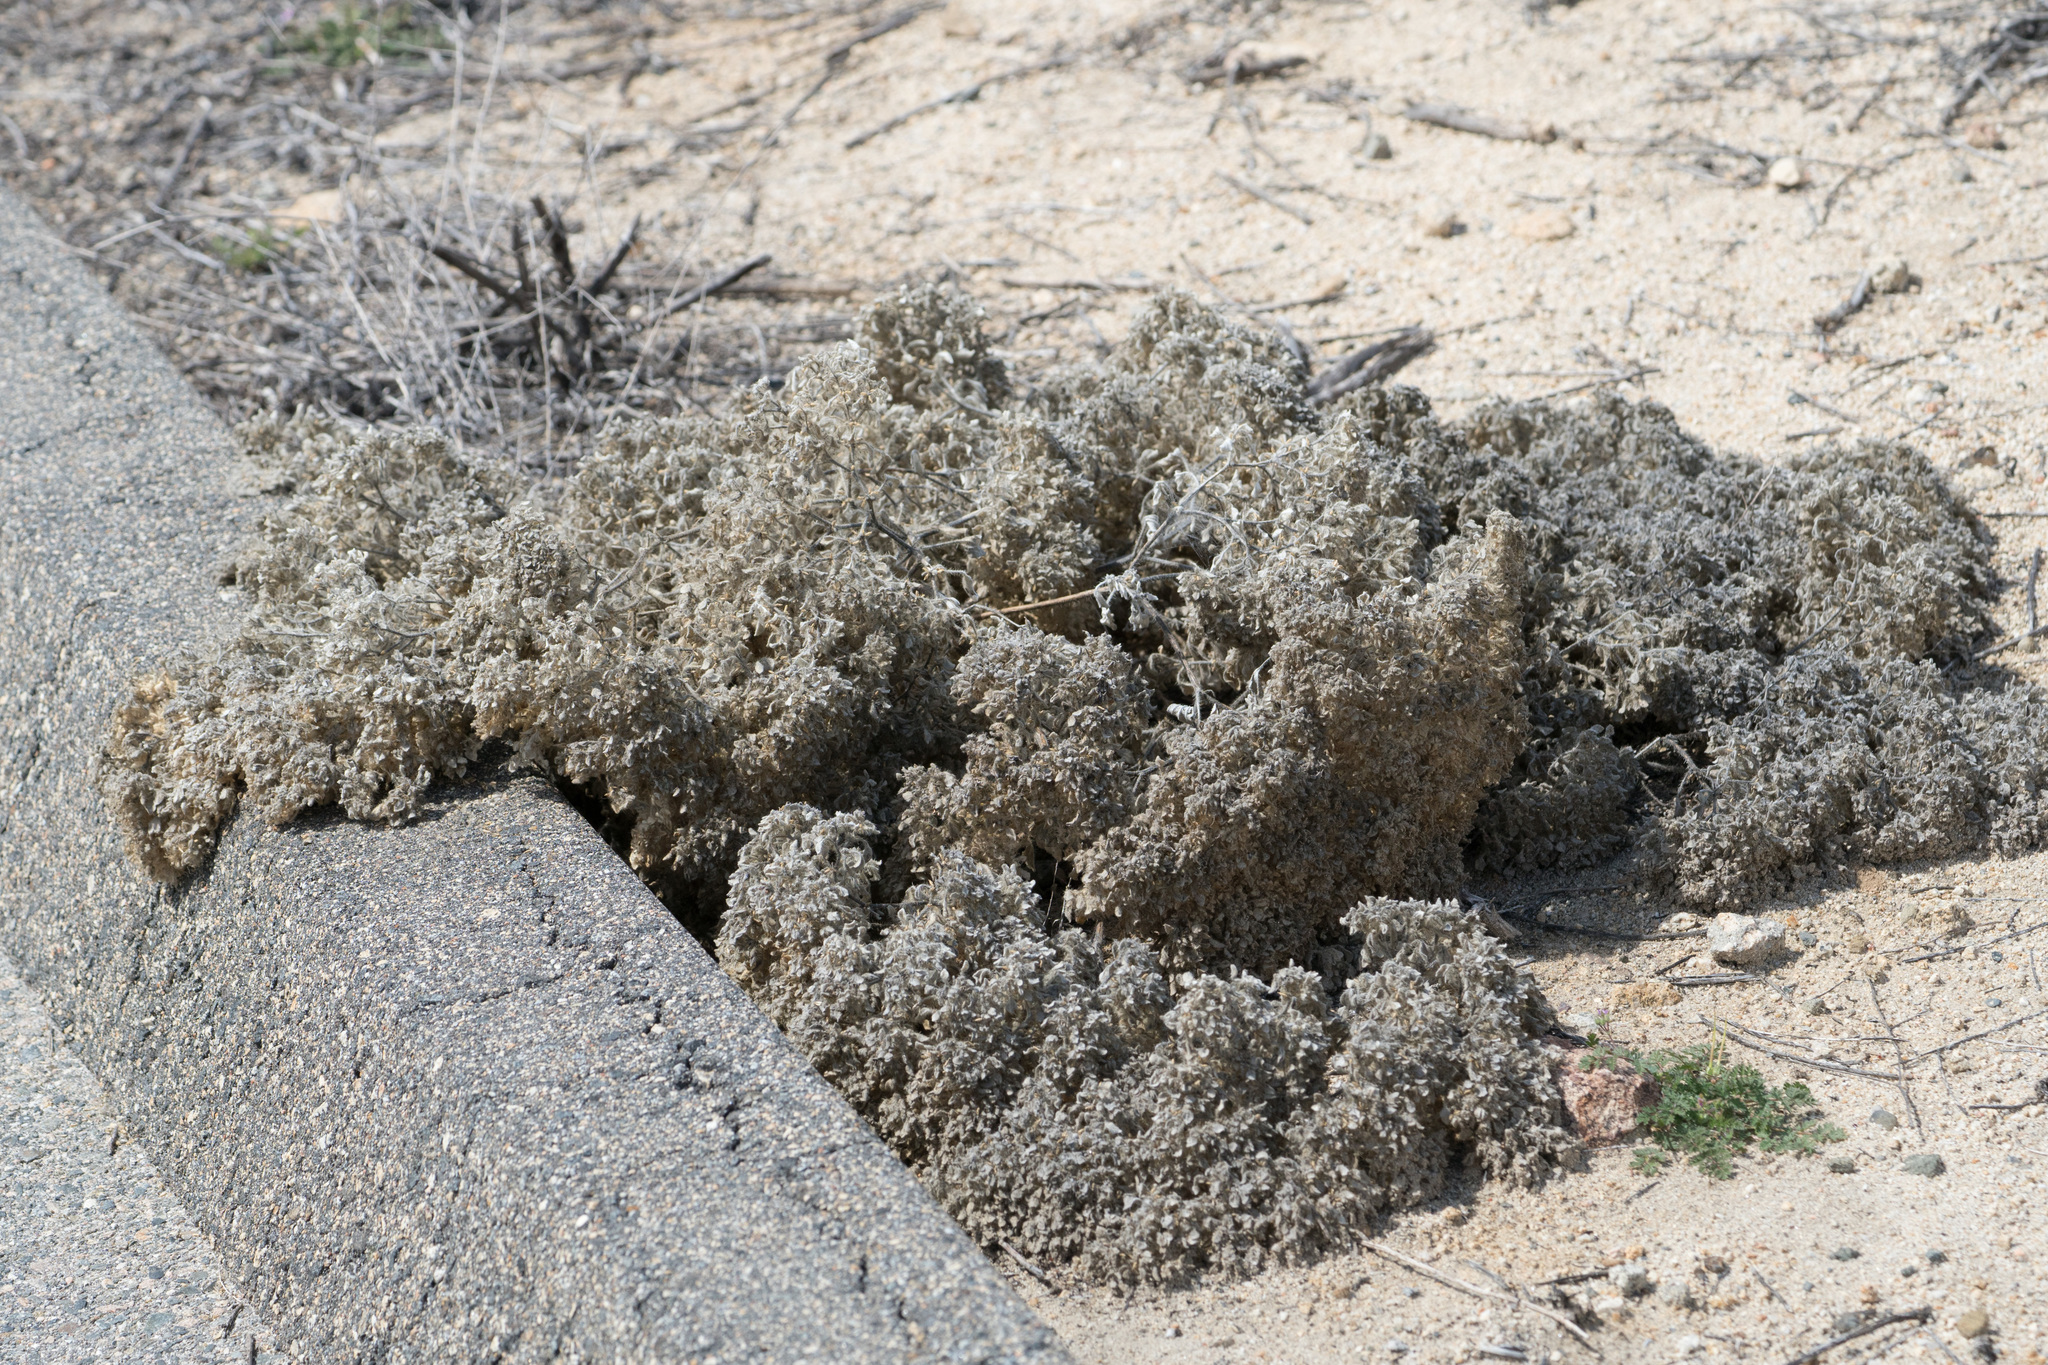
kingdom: Plantae
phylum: Tracheophyta
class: Magnoliopsida
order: Malpighiales
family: Euphorbiaceae
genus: Croton
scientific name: Croton setiger
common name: Dove weed
